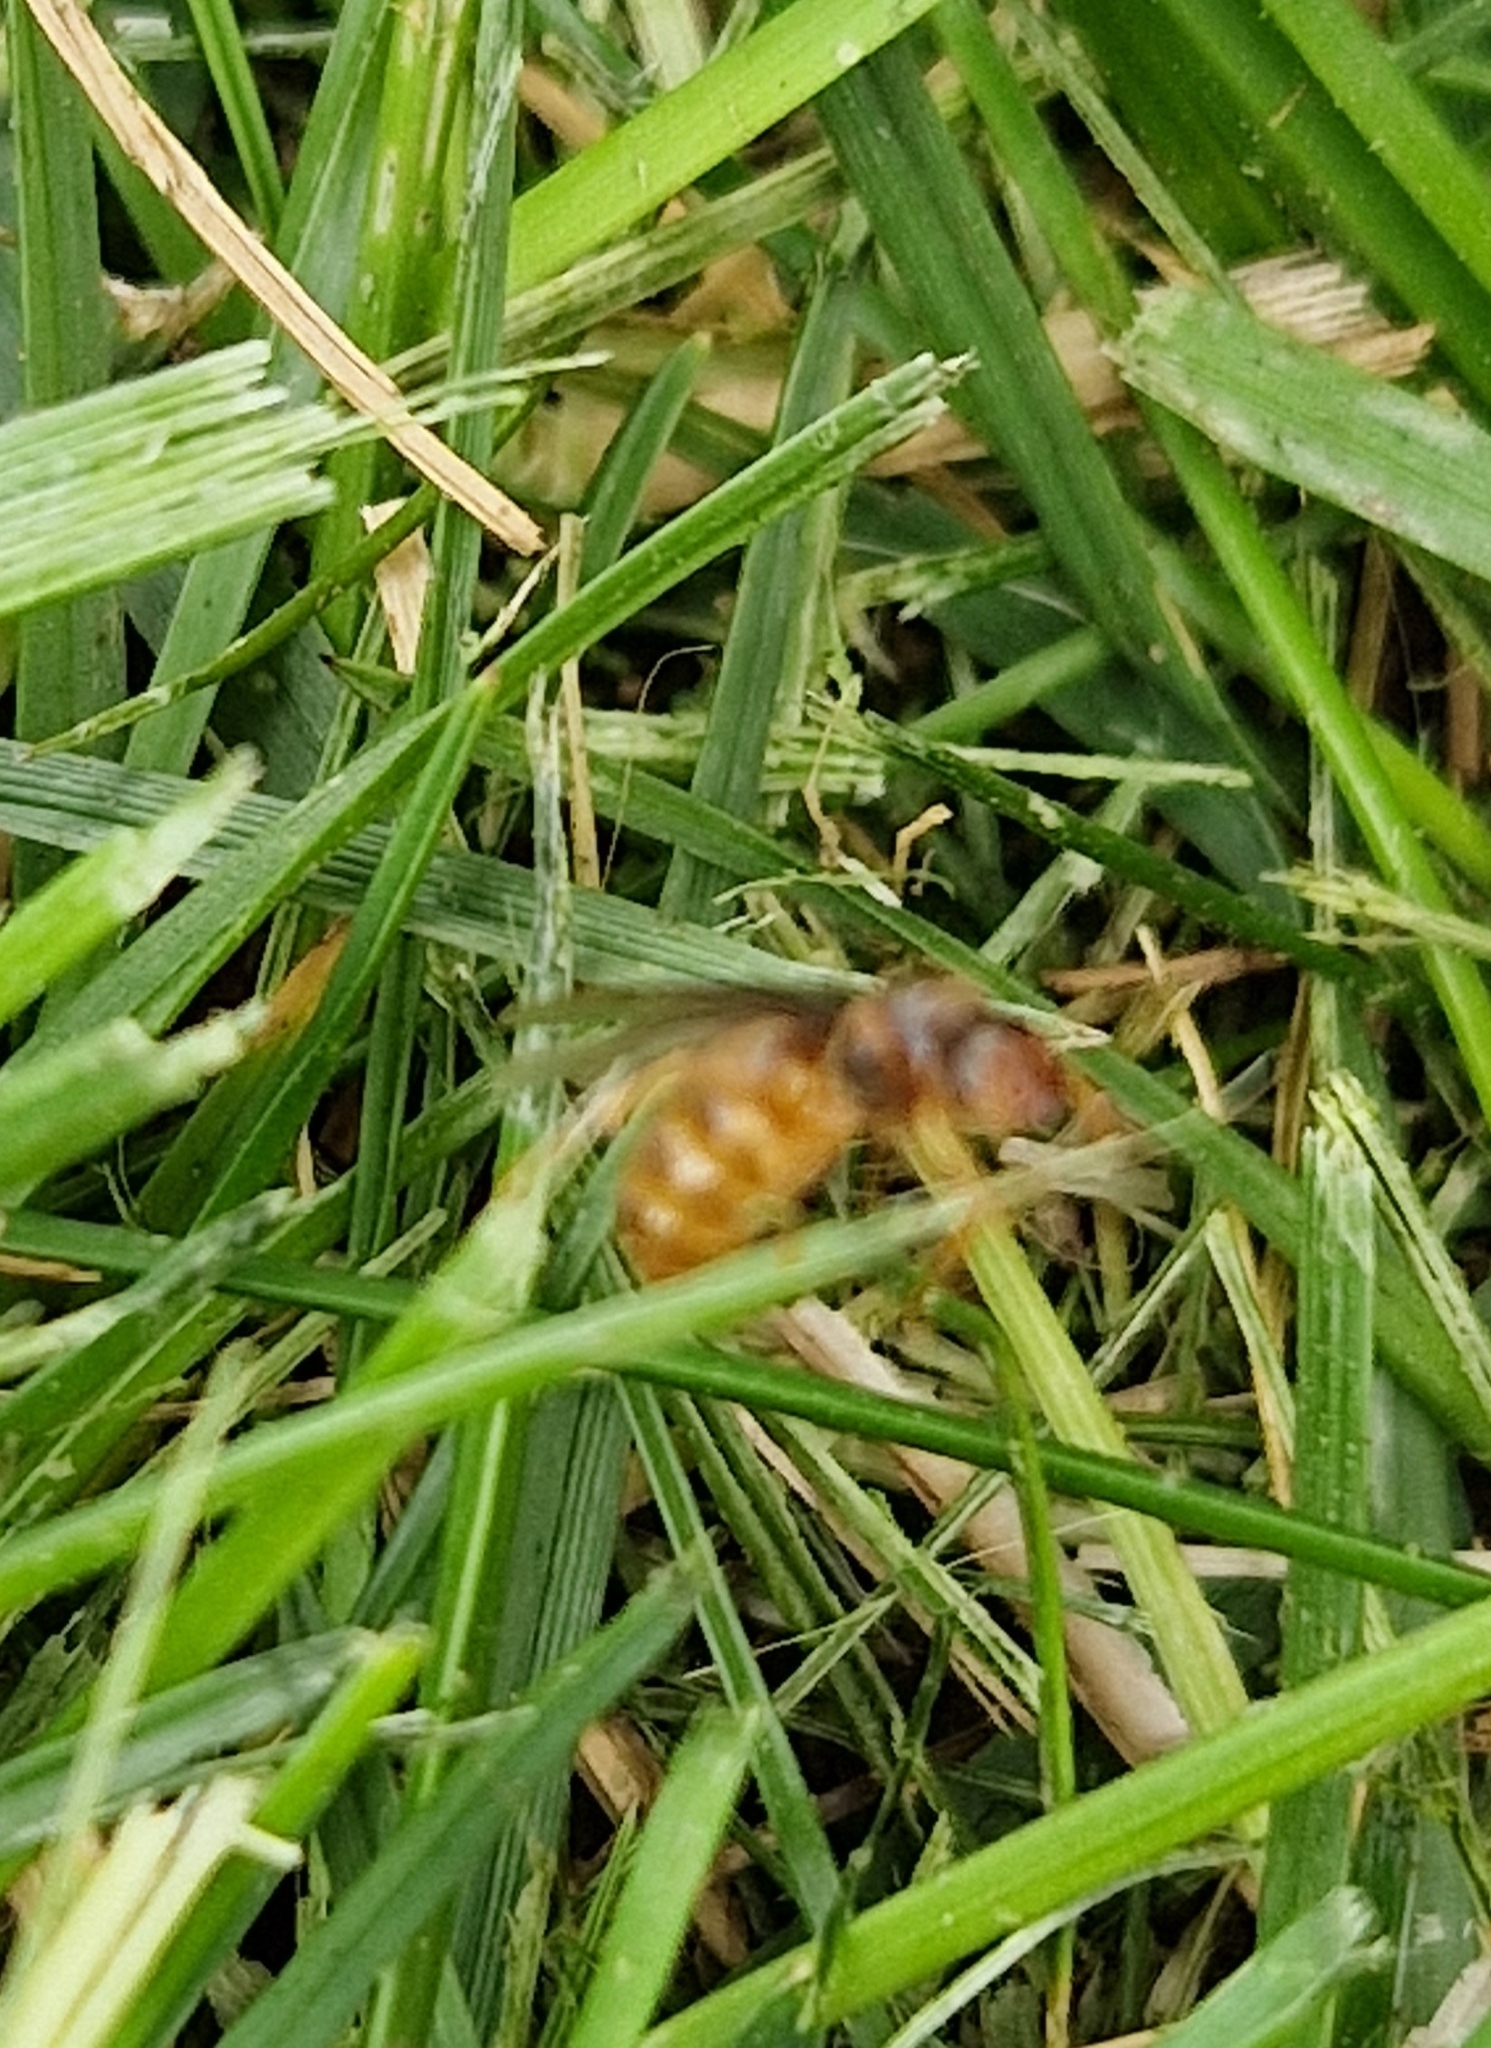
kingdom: Animalia
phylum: Arthropoda
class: Insecta
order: Hymenoptera
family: Formicidae
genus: Lasius
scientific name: Lasius flavus
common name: Blond field ant
